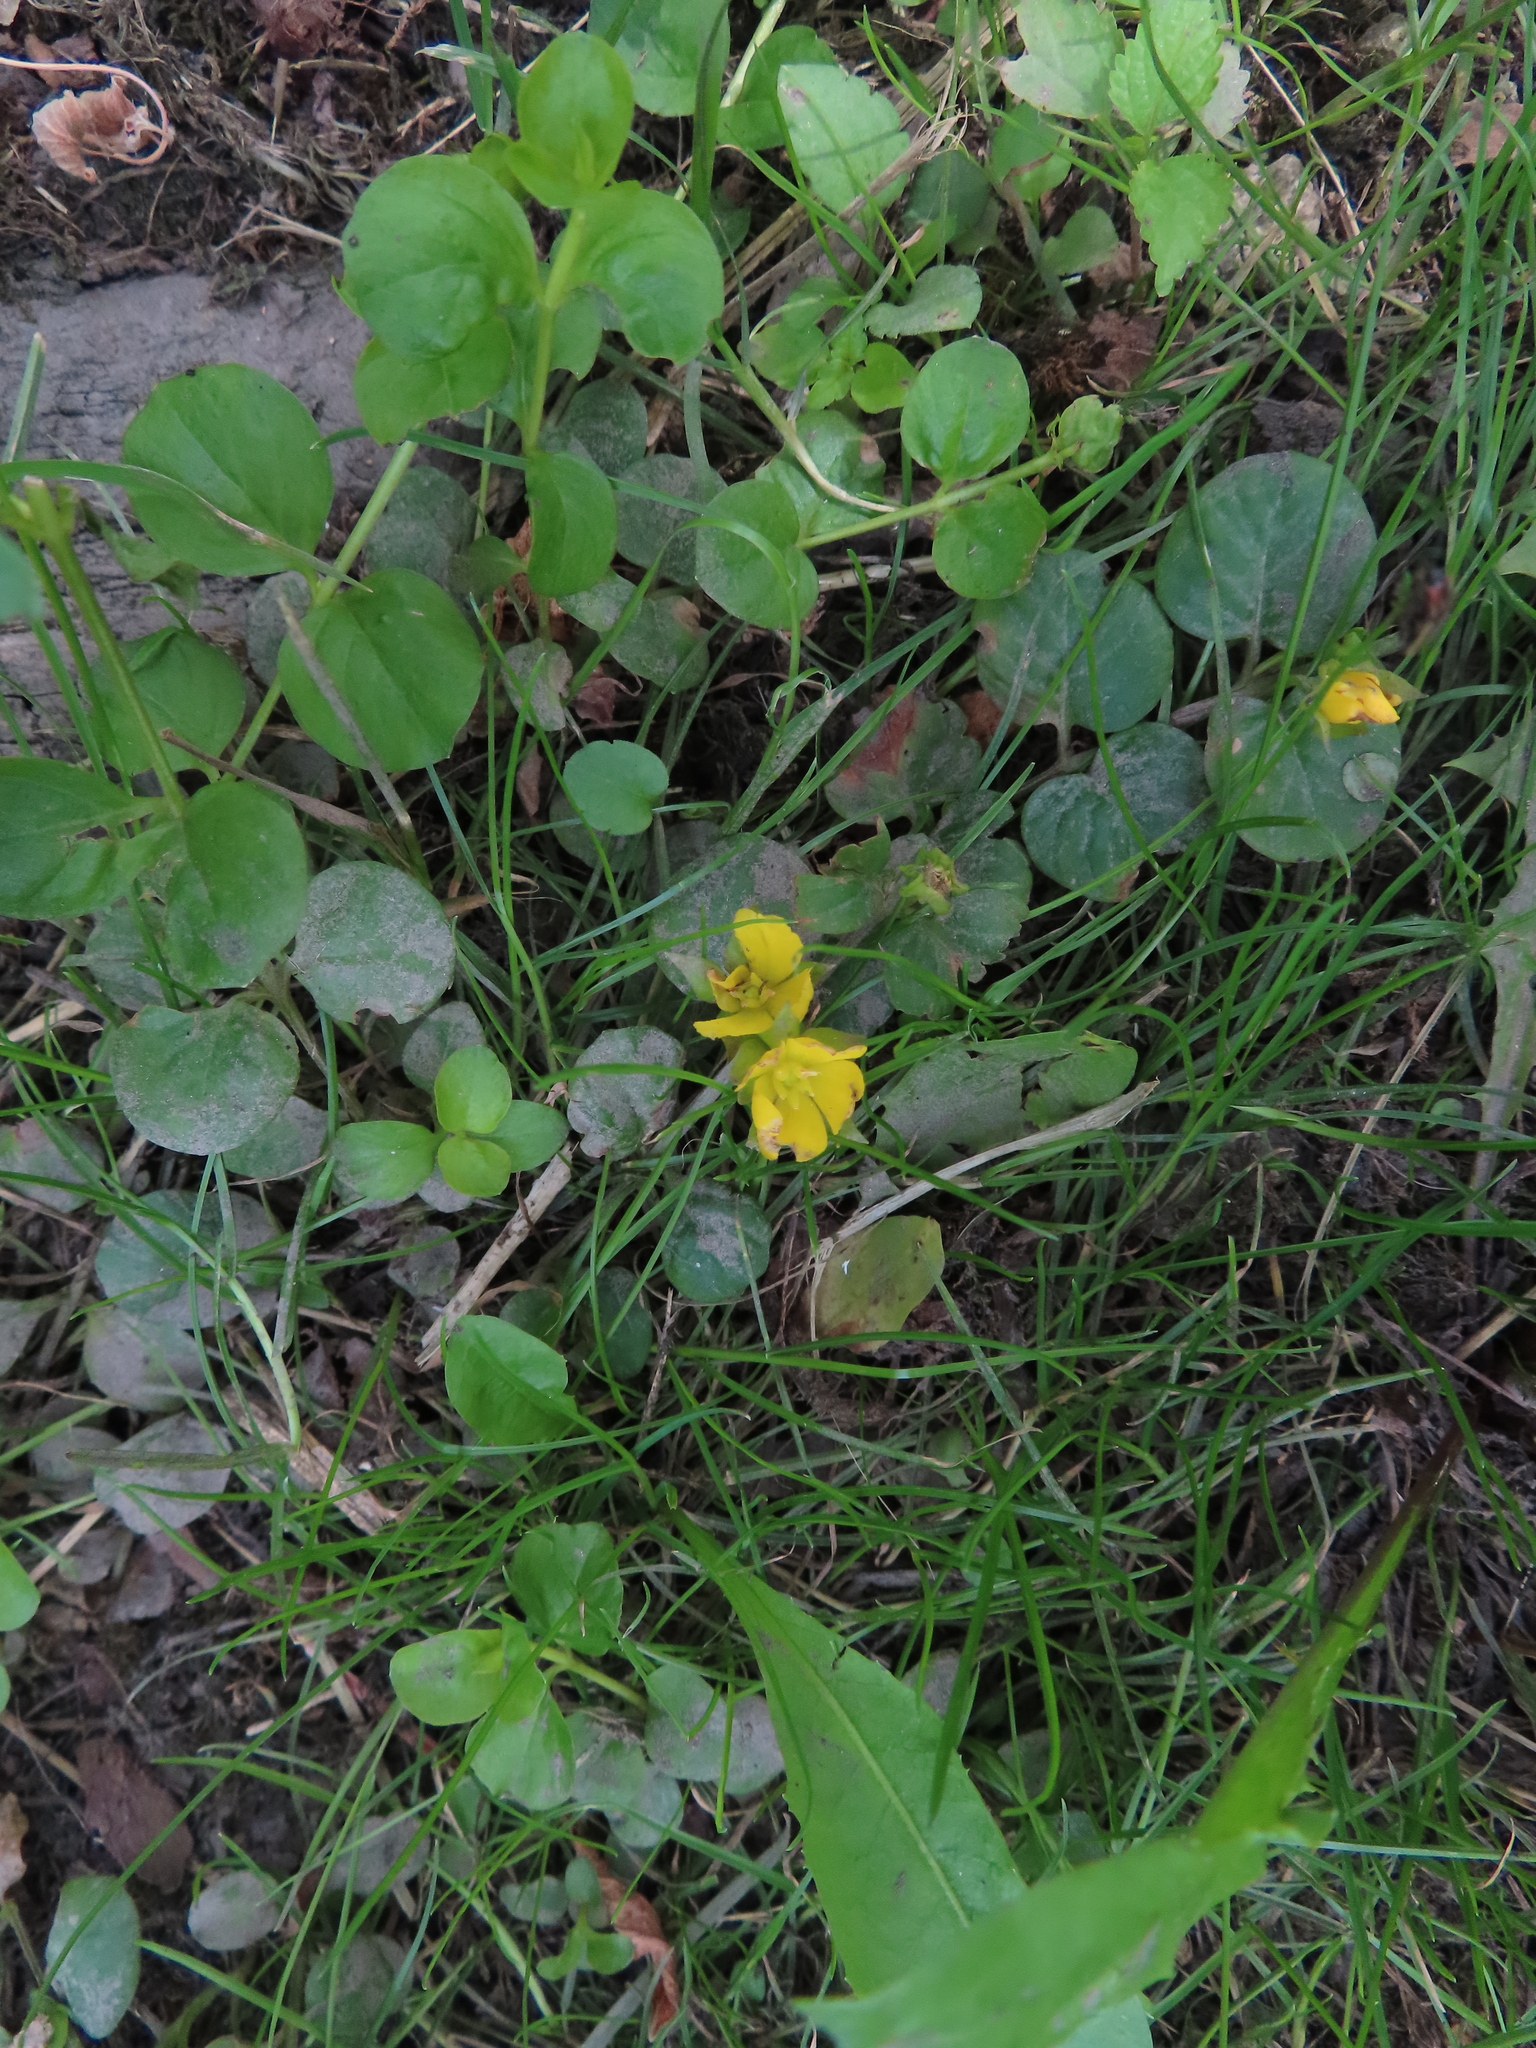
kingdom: Plantae
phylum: Tracheophyta
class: Magnoliopsida
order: Ericales
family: Primulaceae
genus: Lysimachia
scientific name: Lysimachia nummularia
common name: Moneywort
